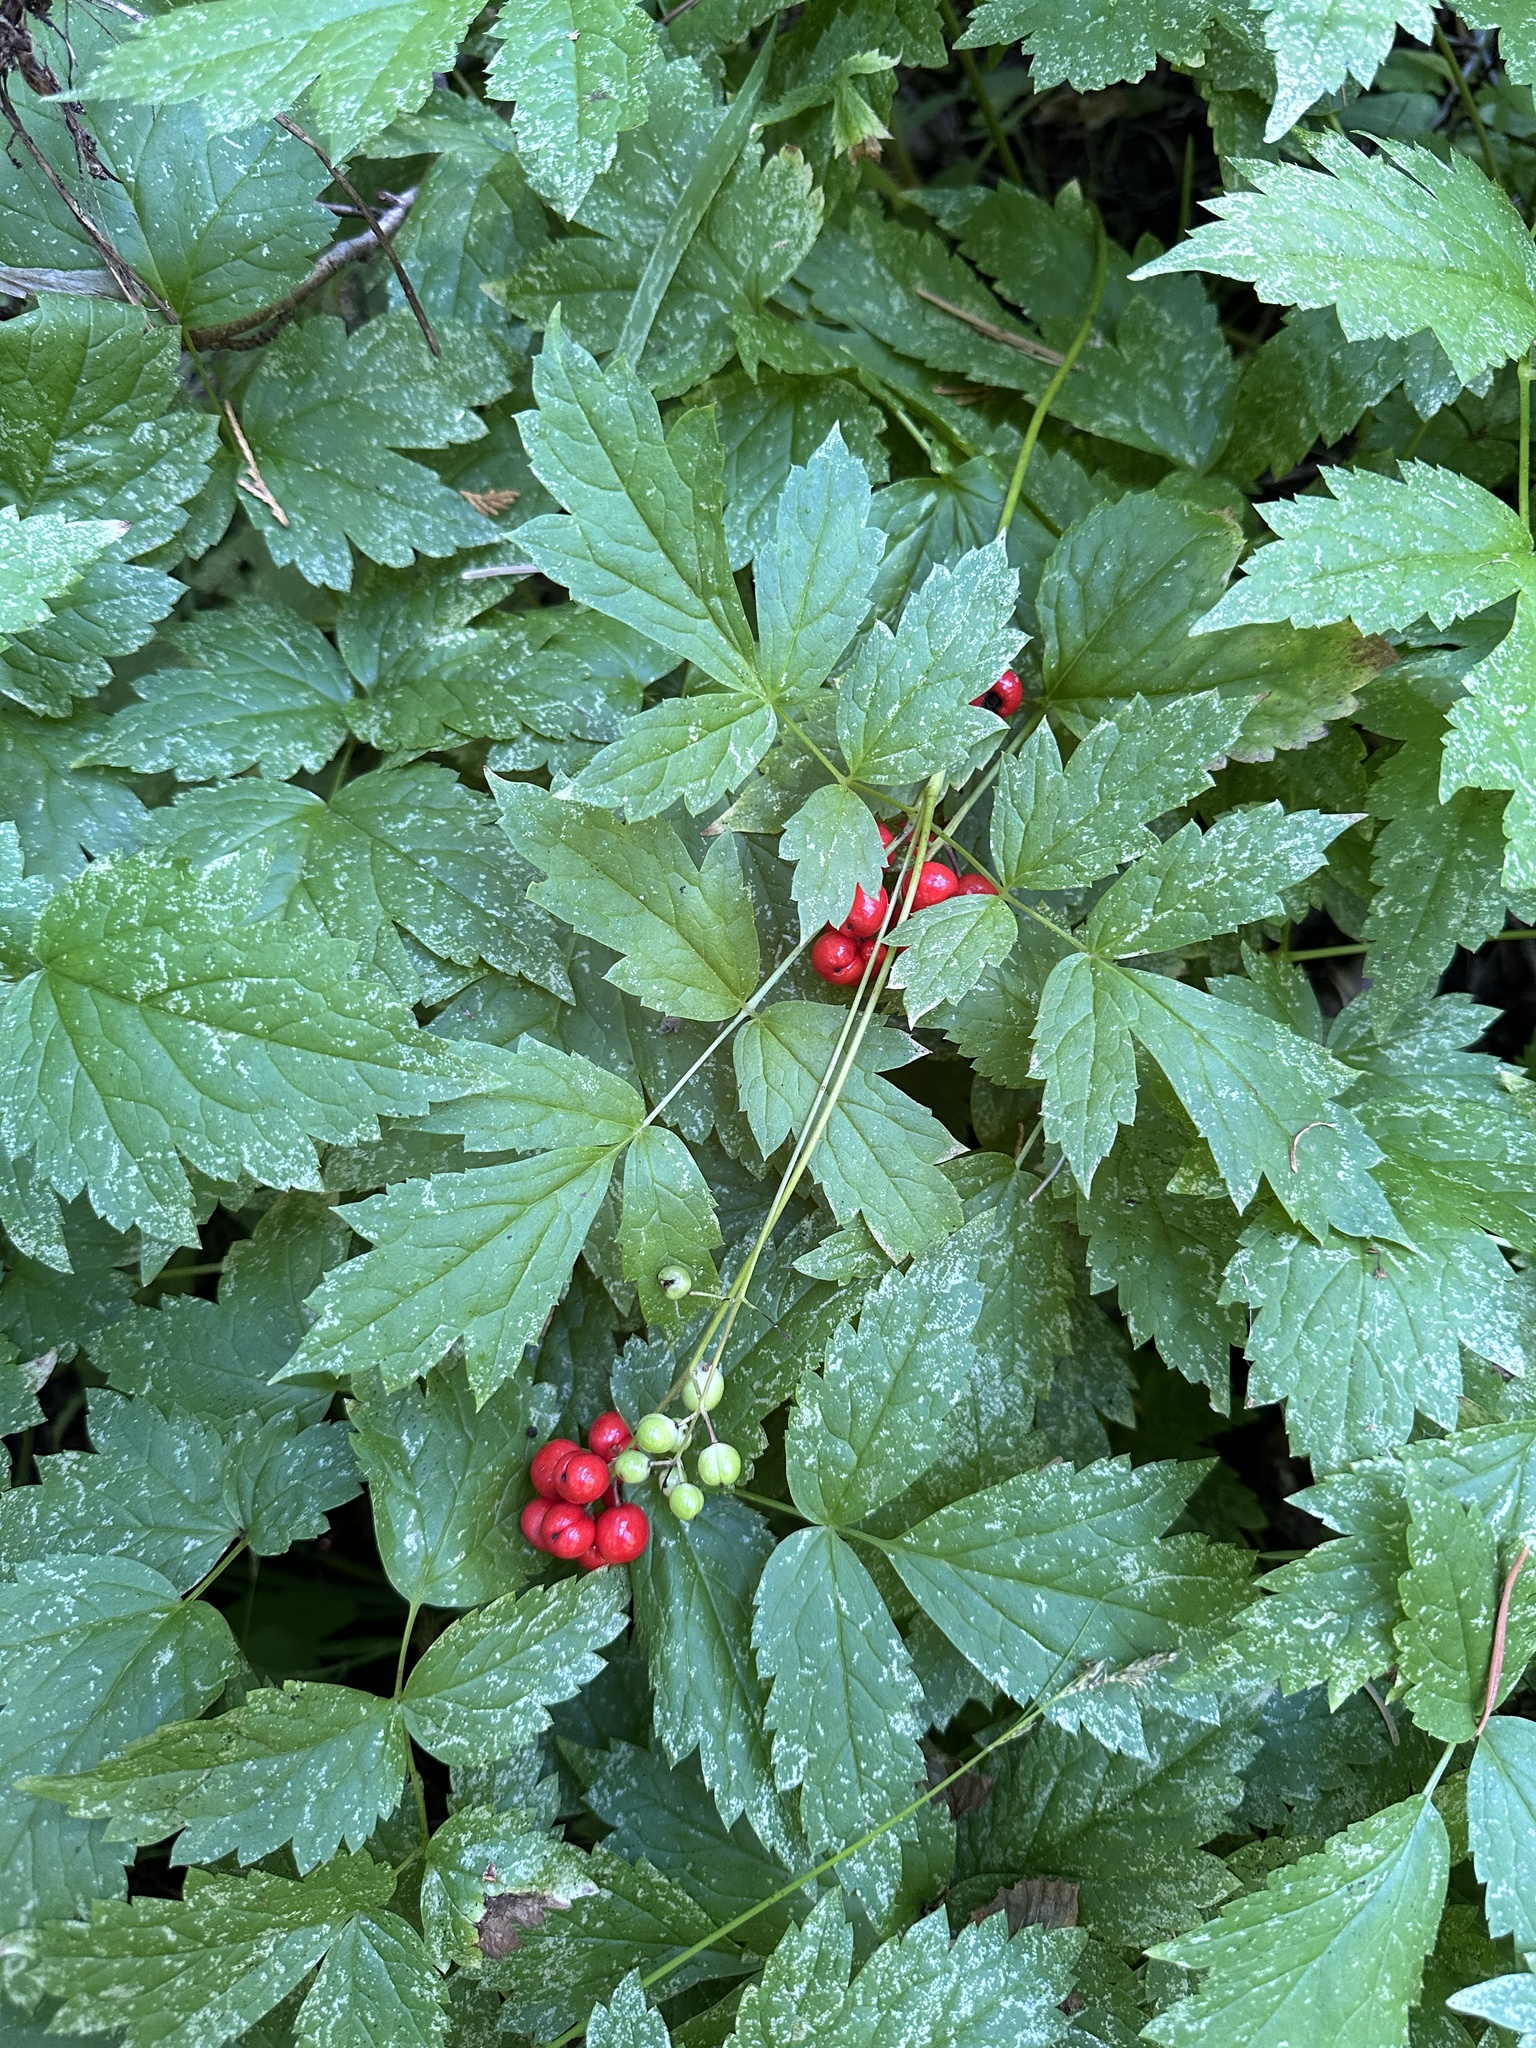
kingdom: Plantae
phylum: Tracheophyta
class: Magnoliopsida
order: Ranunculales
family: Ranunculaceae
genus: Actaea
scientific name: Actaea rubra
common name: Red baneberry
